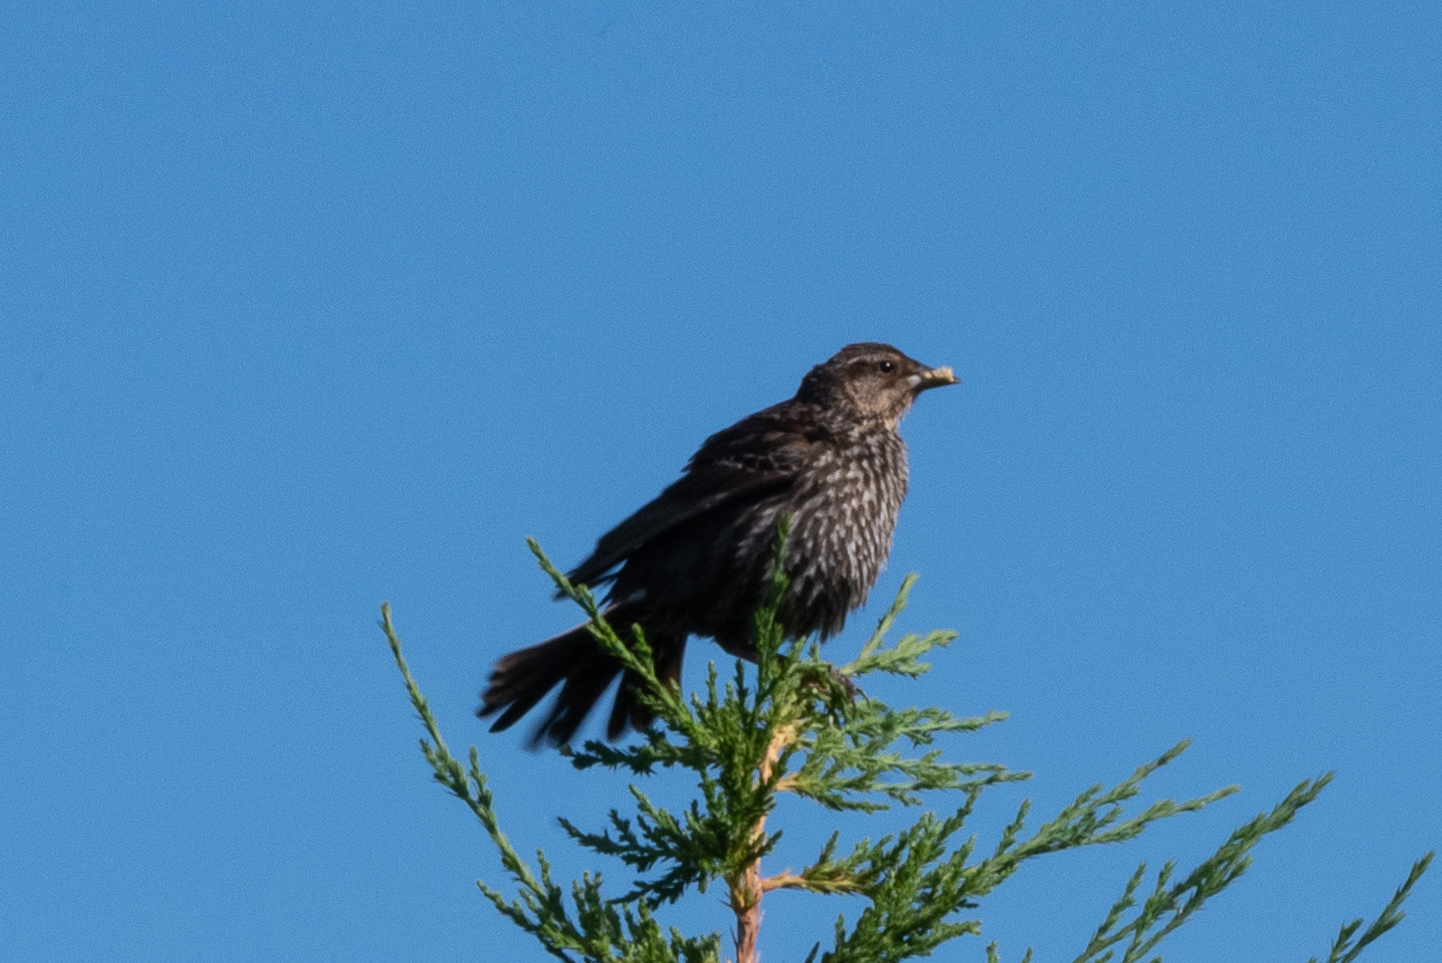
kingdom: Animalia
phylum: Chordata
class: Aves
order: Passeriformes
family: Icteridae
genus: Agelaius
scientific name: Agelaius phoeniceus
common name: Red-winged blackbird
